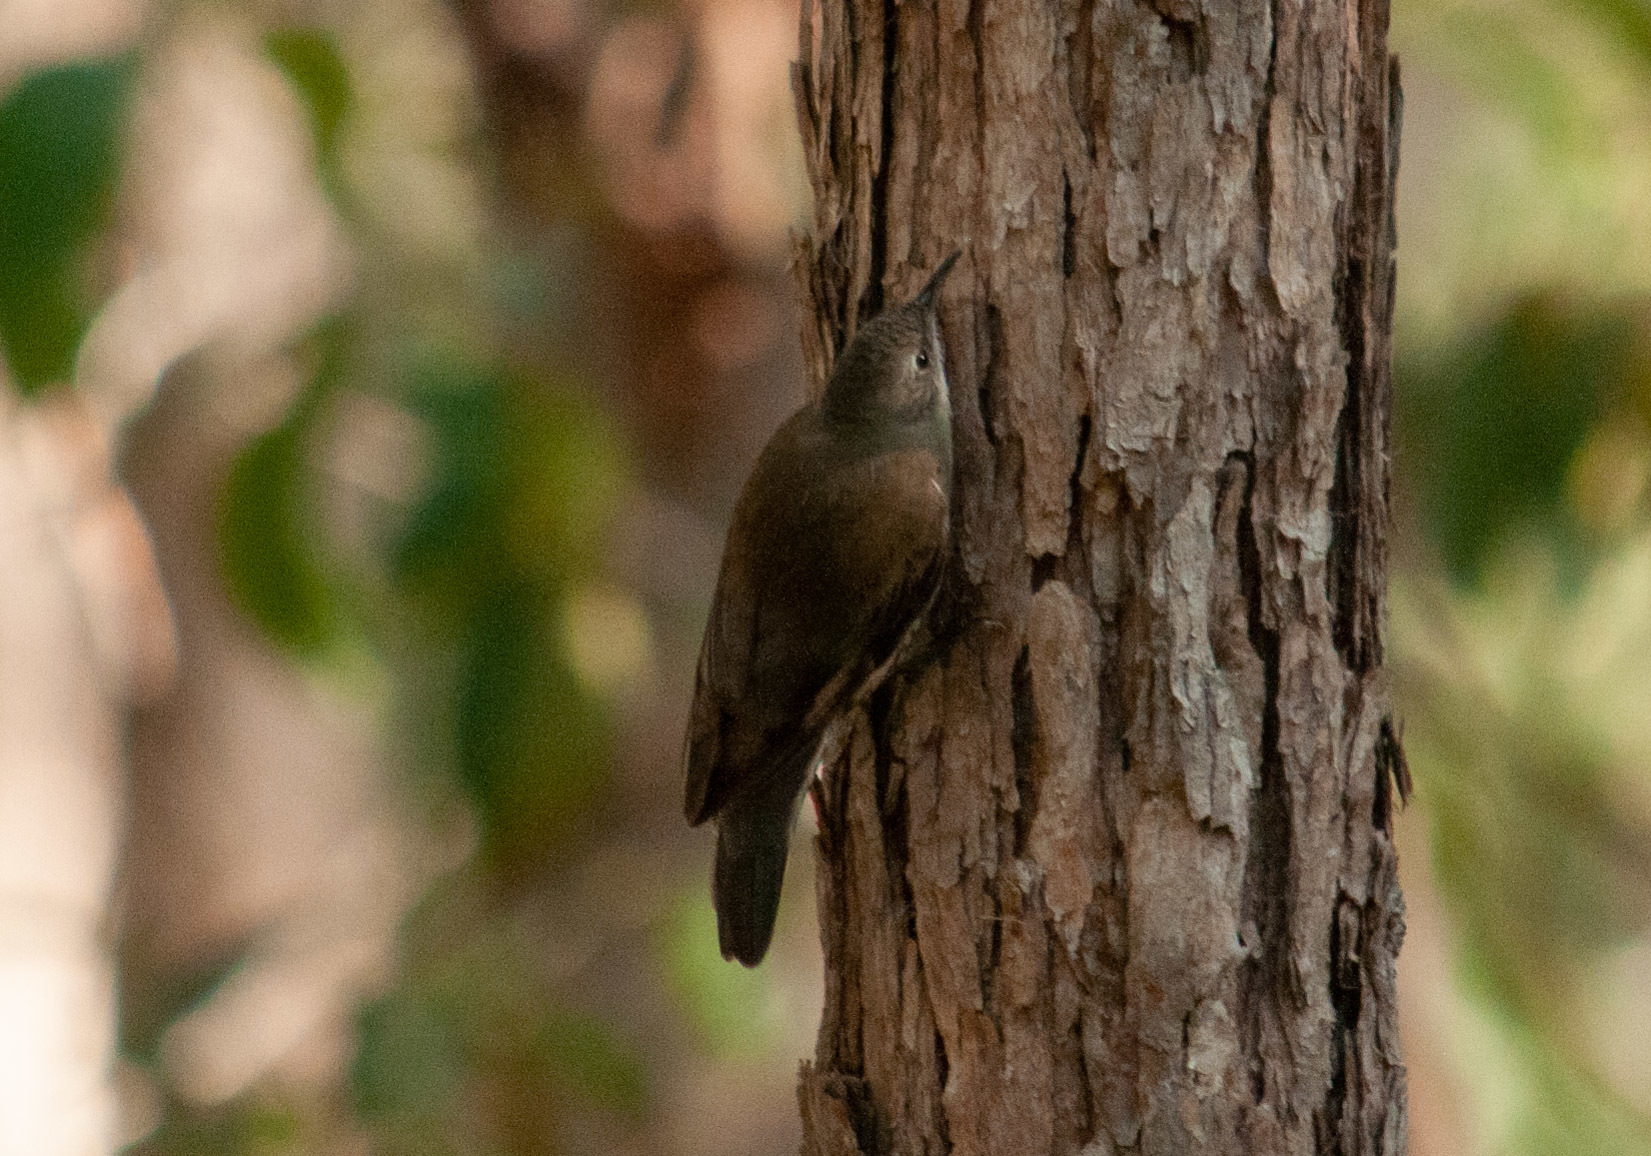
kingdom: Animalia
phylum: Chordata
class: Aves
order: Passeriformes
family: Climacteridae
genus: Cormobates
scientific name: Cormobates leucophaea
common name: White-throated treecreeper
